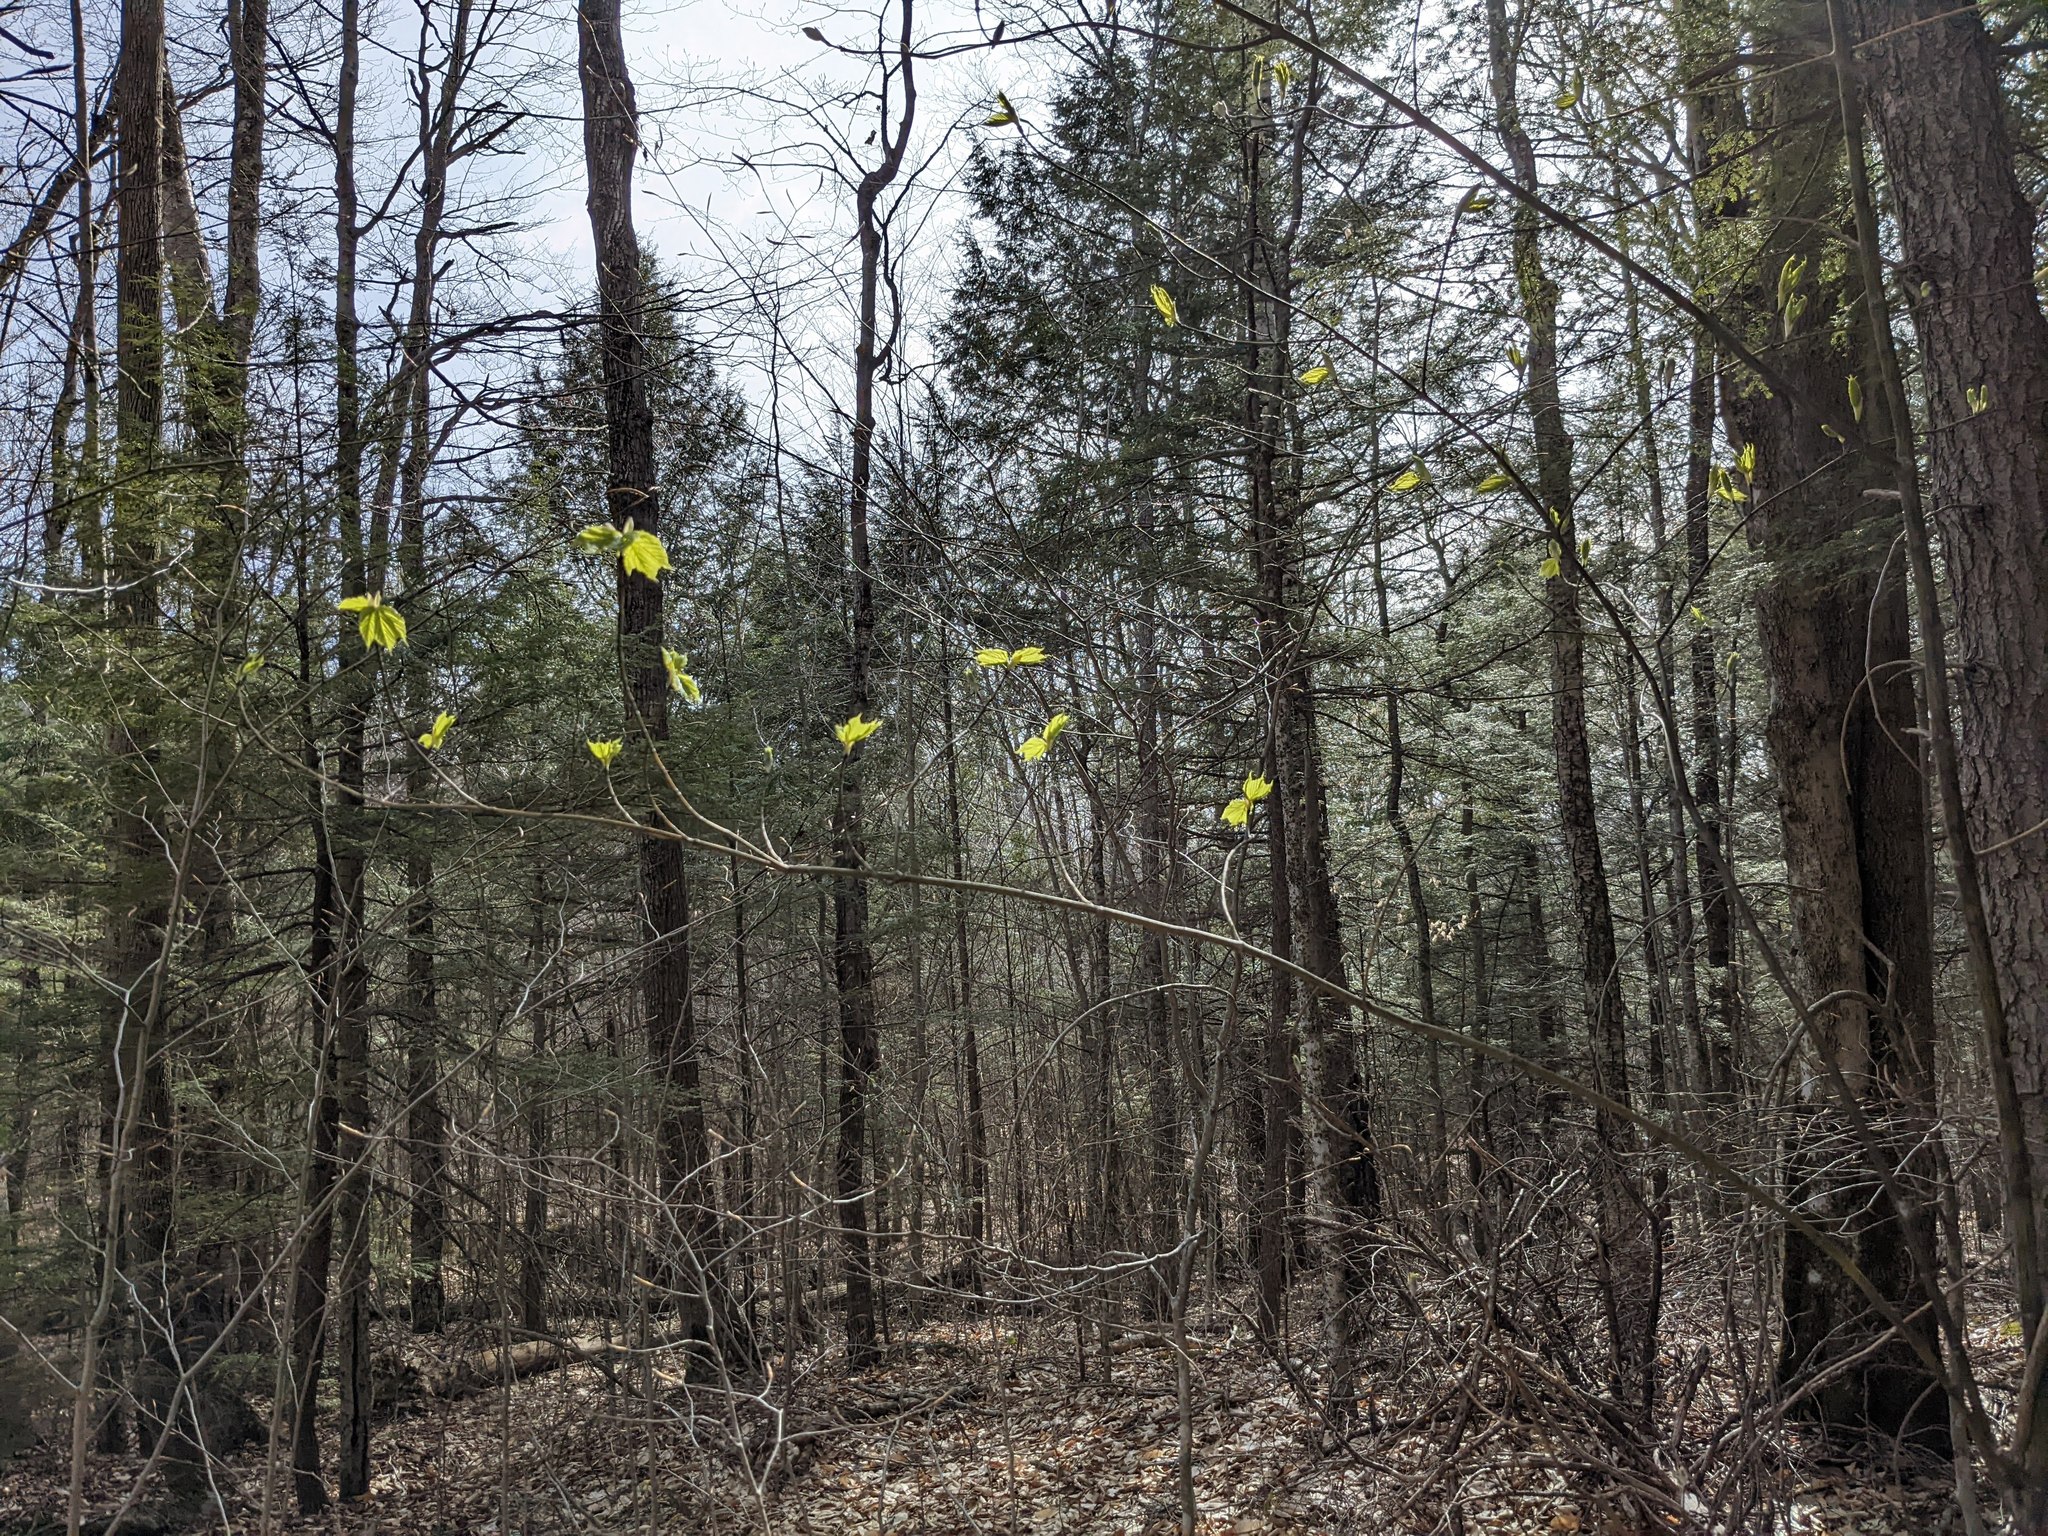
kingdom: Plantae
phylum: Tracheophyta
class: Magnoliopsida
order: Sapindales
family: Sapindaceae
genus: Acer
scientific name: Acer pensylvanicum
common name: Moosewood
